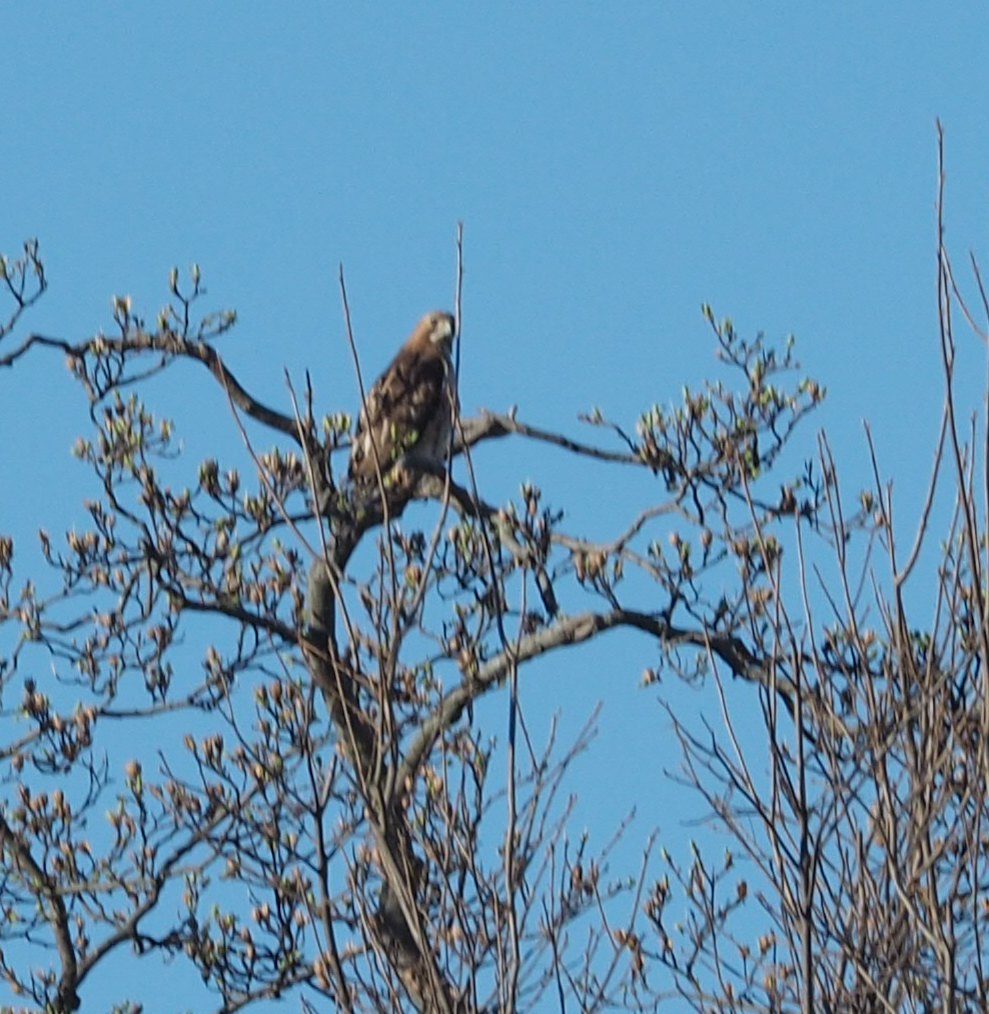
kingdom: Animalia
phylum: Chordata
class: Aves
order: Accipitriformes
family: Accipitridae
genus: Buteo
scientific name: Buteo jamaicensis
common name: Red-tailed hawk
